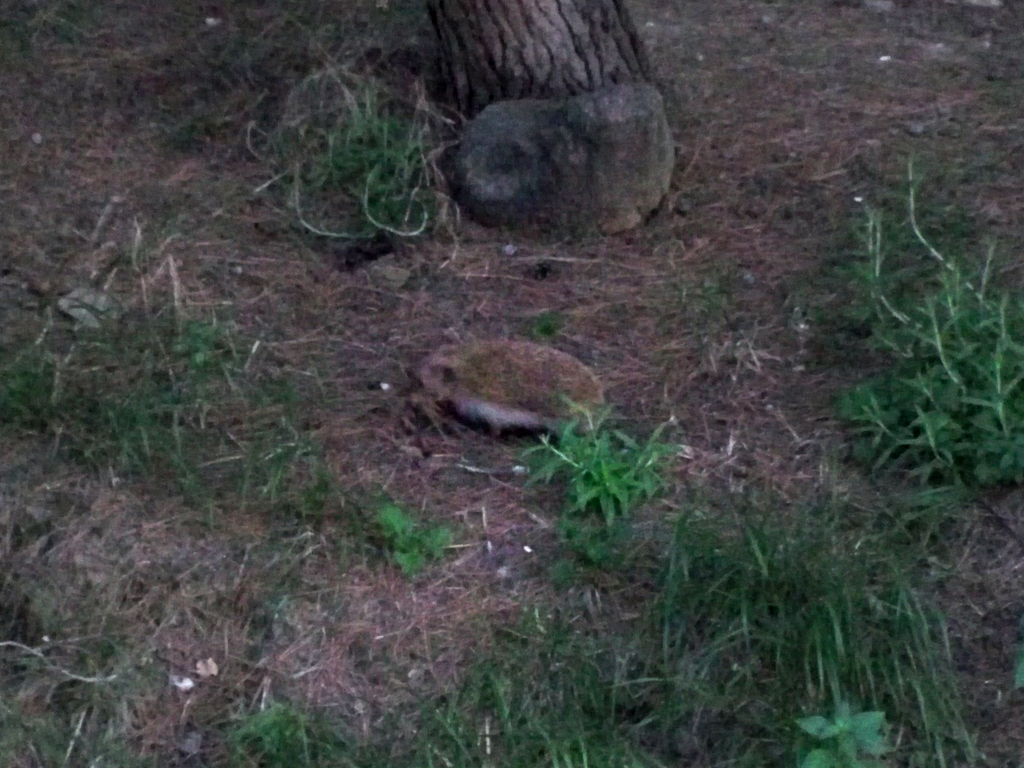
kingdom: Animalia
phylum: Chordata
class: Mammalia
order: Erinaceomorpha
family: Erinaceidae
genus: Erinaceus
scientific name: Erinaceus europaeus
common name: West european hedgehog
